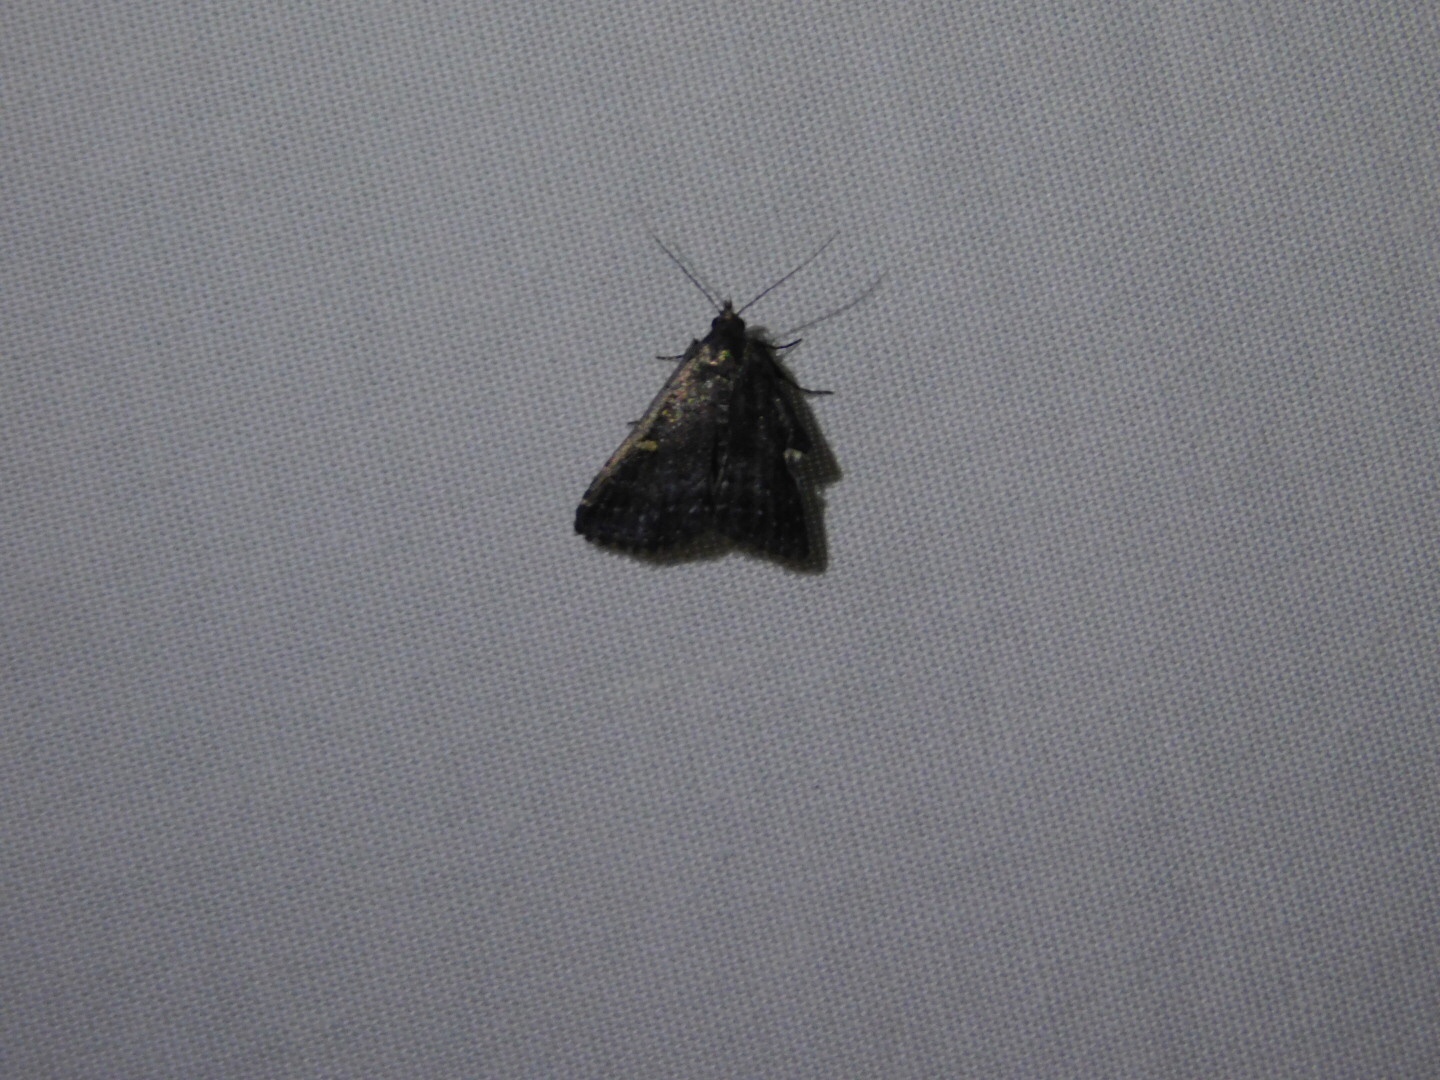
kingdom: Animalia
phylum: Arthropoda
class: Insecta
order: Lepidoptera
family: Erebidae
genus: Tetanolita
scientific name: Tetanolita mynesalis
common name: Smoky tetanolita moth
